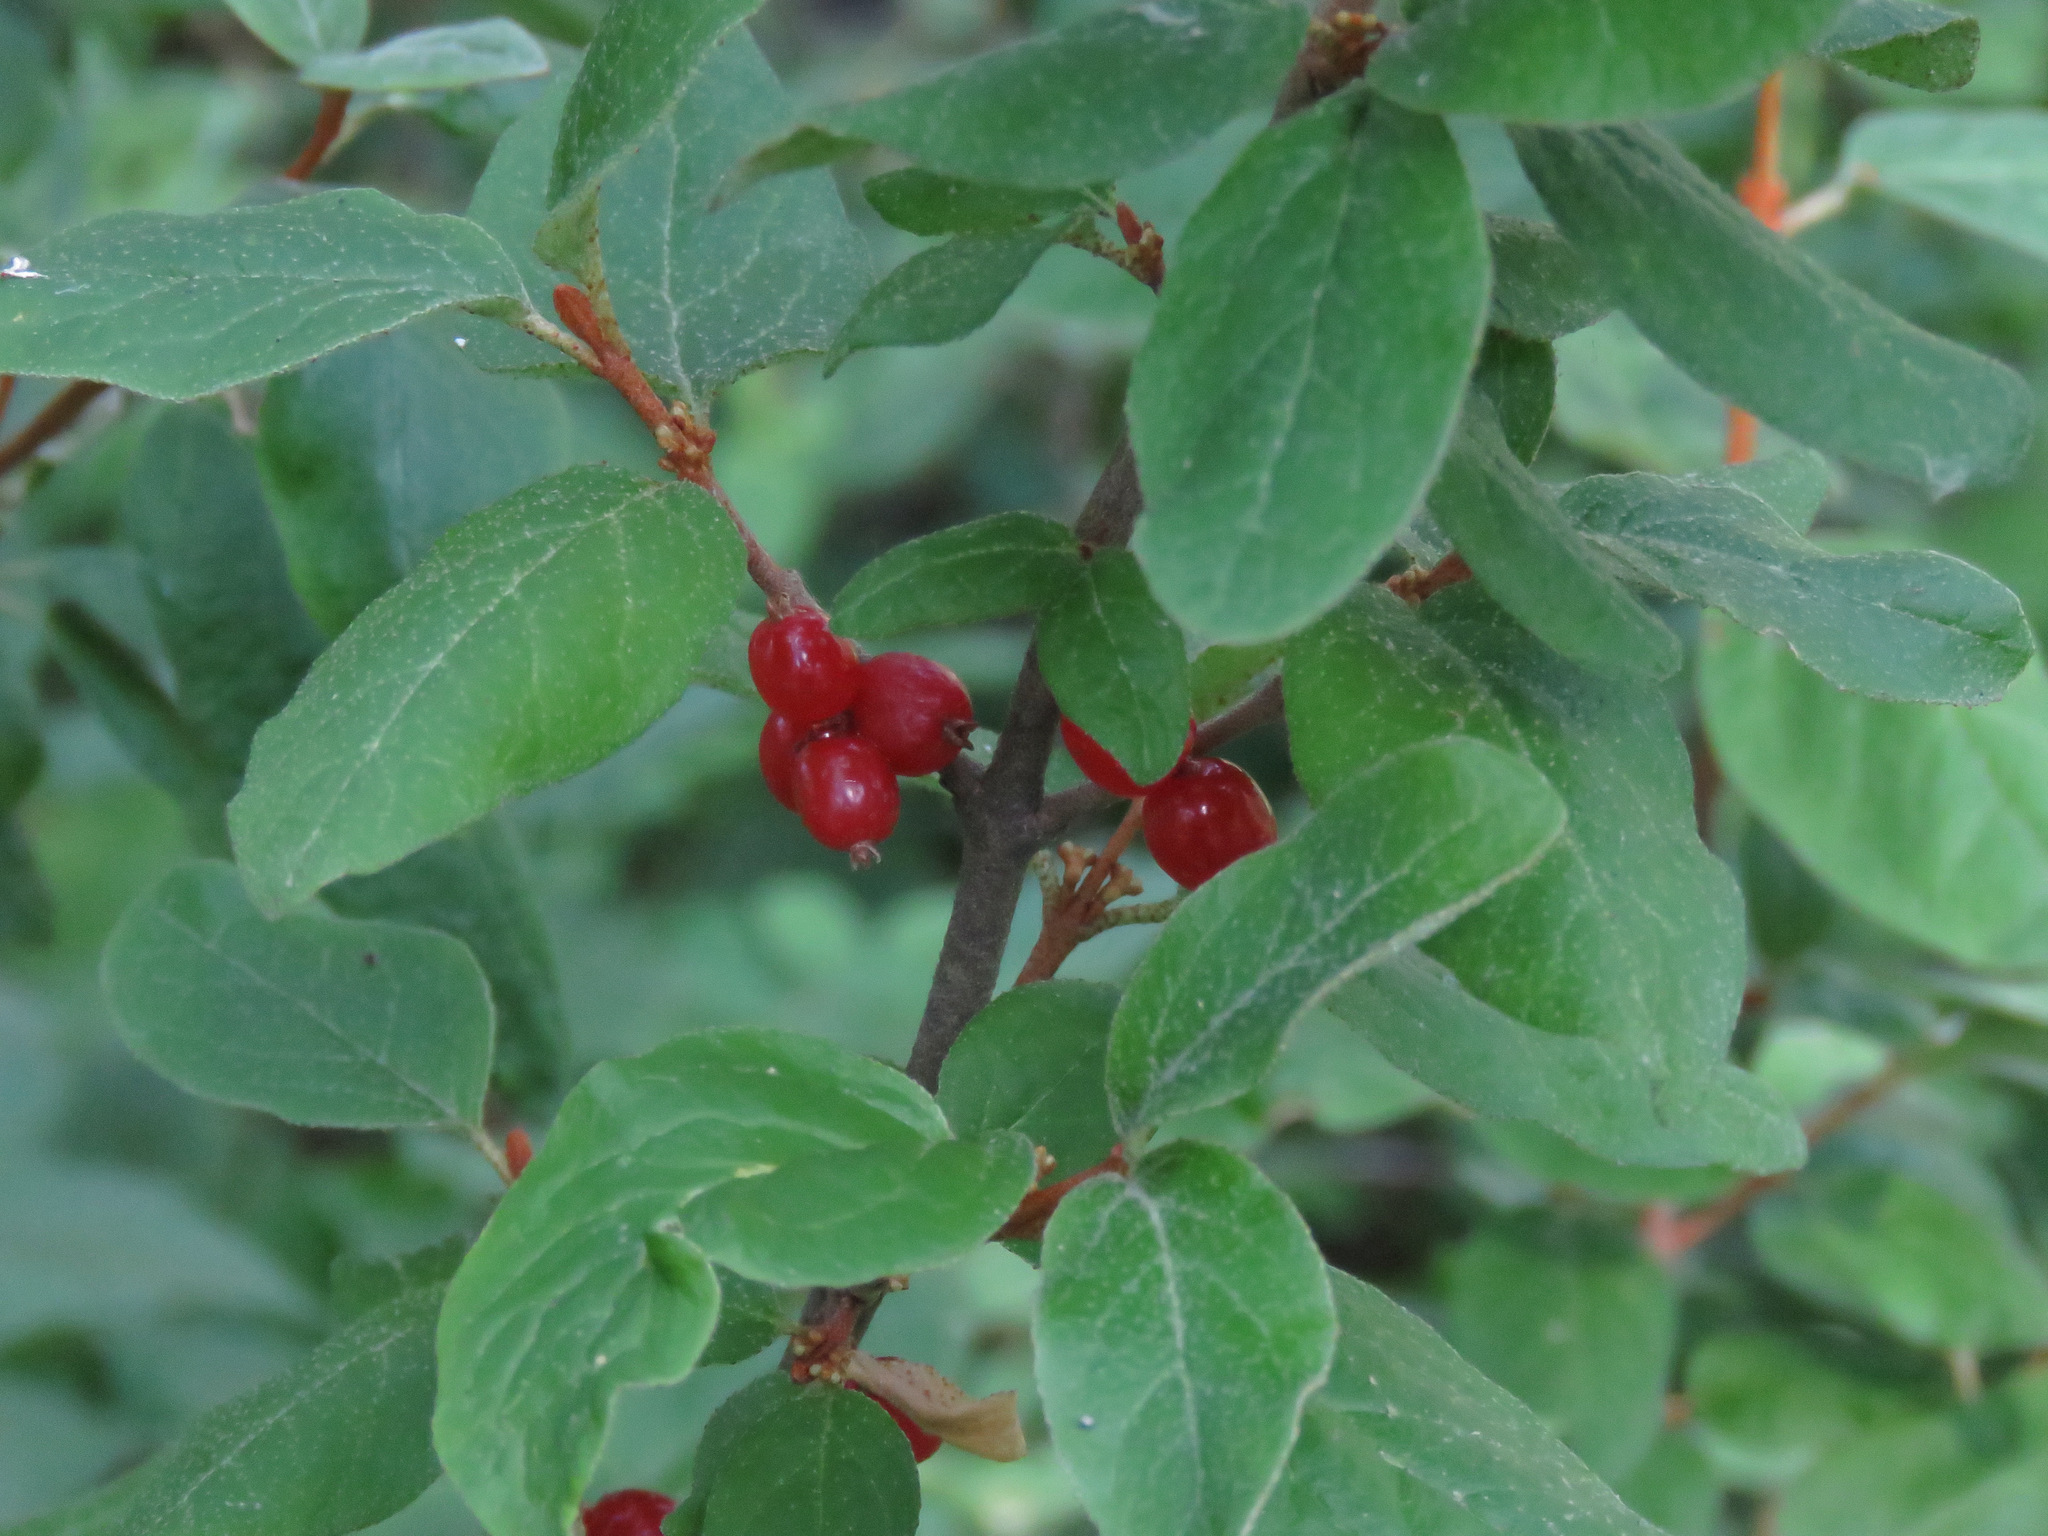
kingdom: Plantae
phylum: Tracheophyta
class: Magnoliopsida
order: Rosales
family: Elaeagnaceae
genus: Shepherdia
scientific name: Shepherdia canadensis
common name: Soapberry
